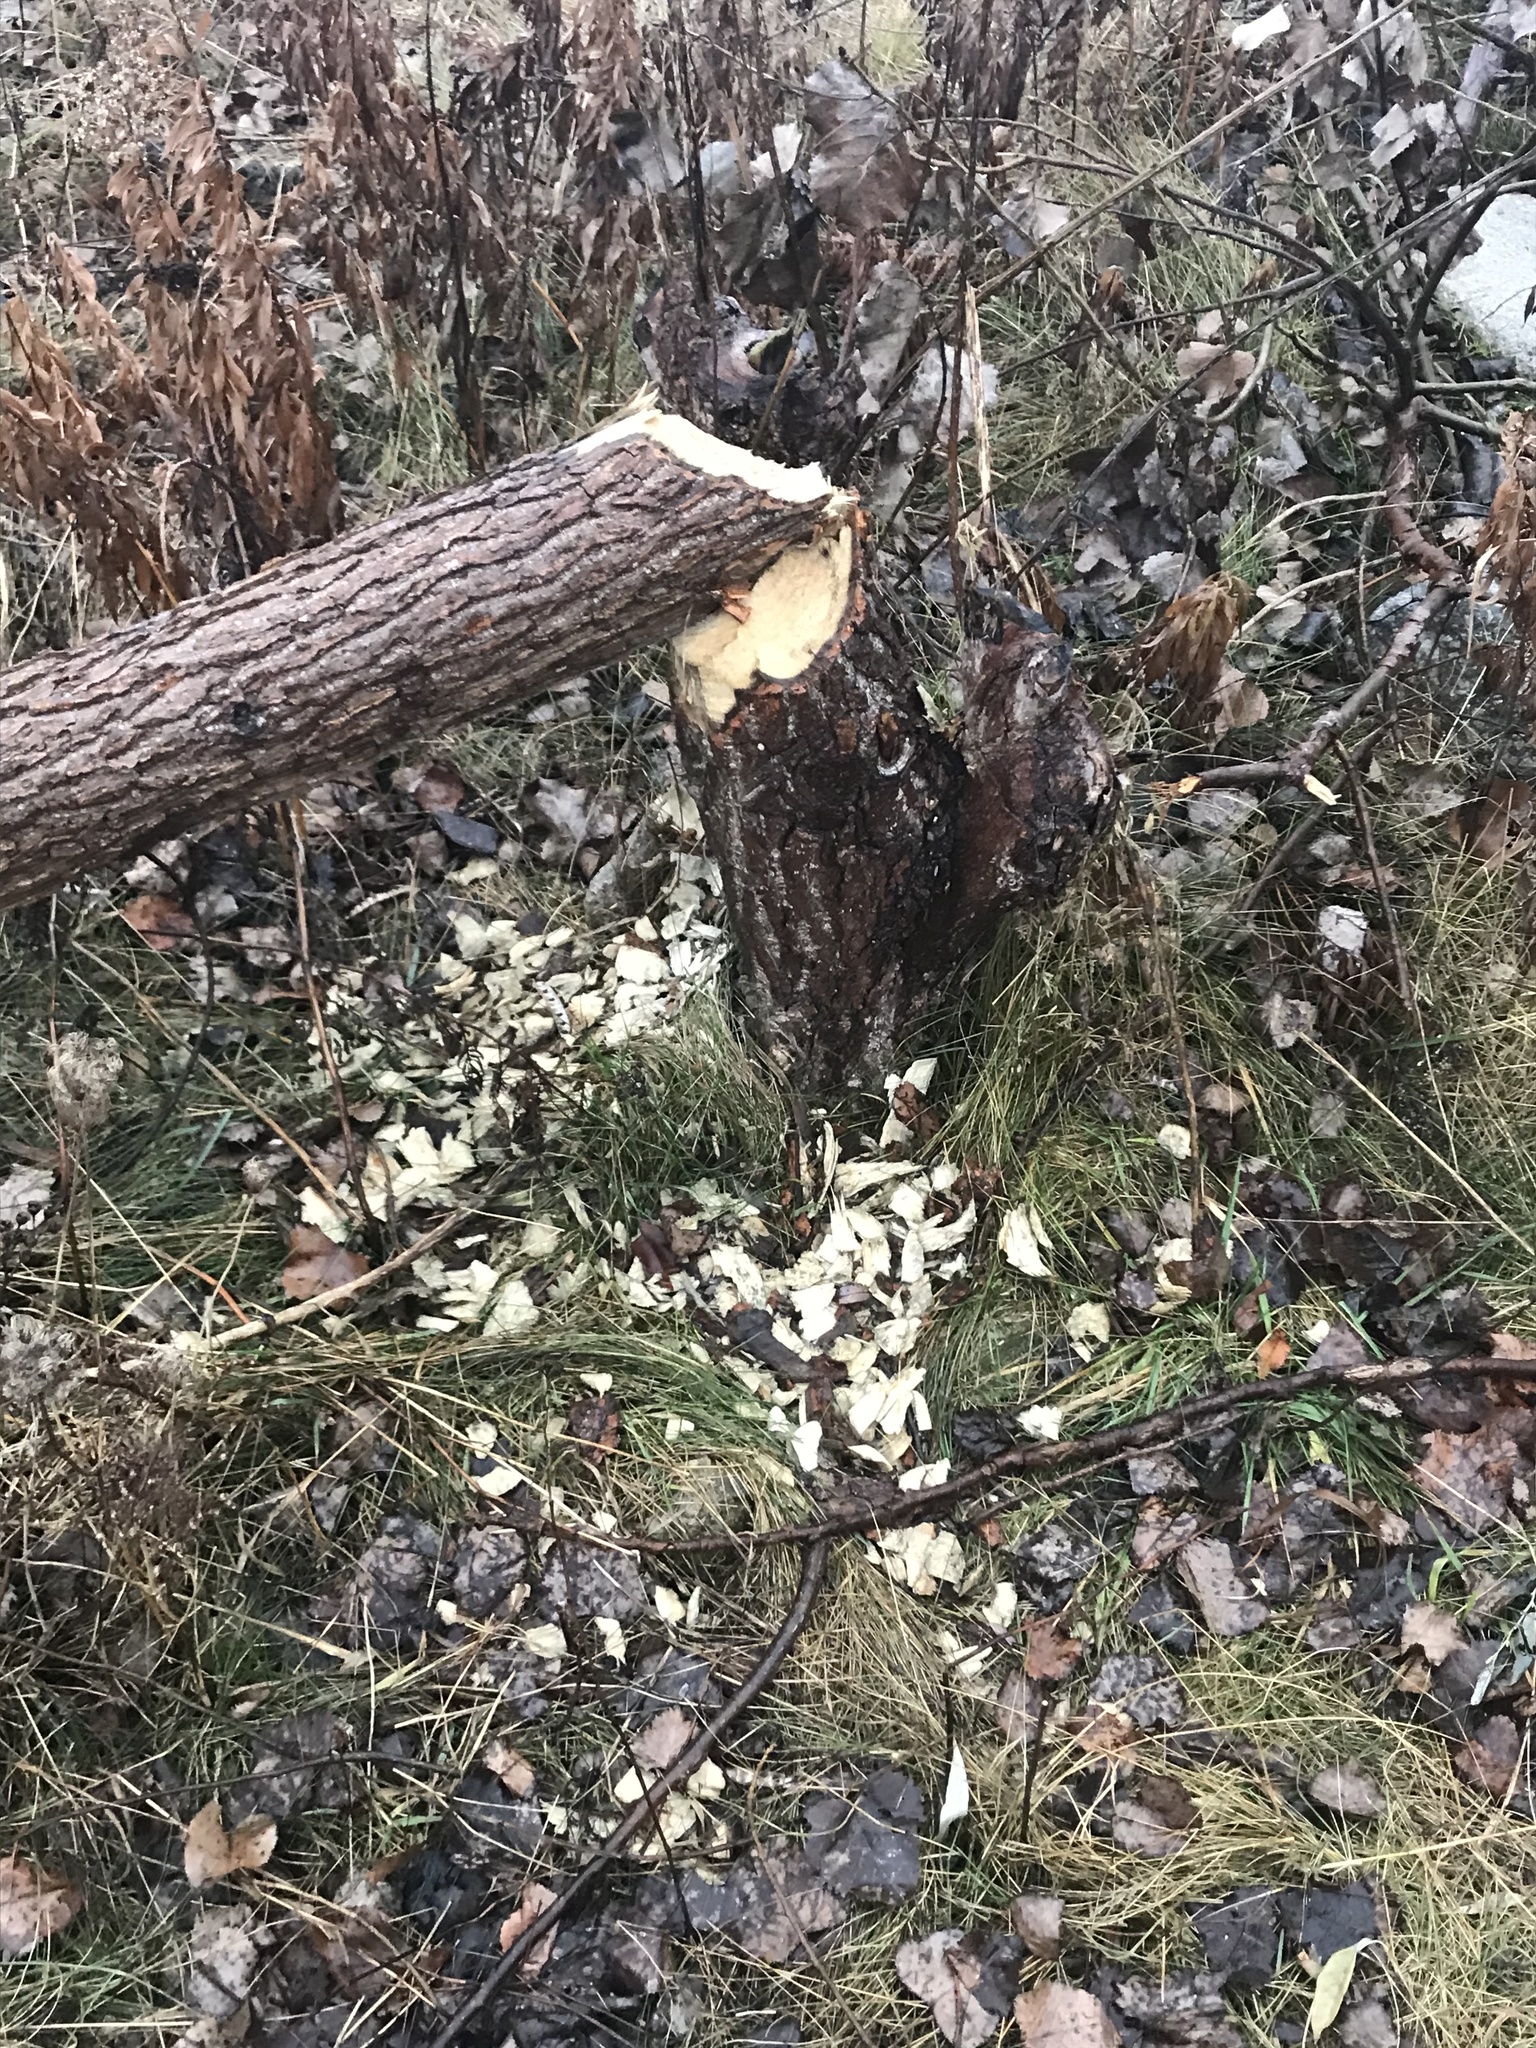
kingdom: Animalia
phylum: Chordata
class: Mammalia
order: Rodentia
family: Castoridae
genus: Castor
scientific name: Castor canadensis
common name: American beaver
